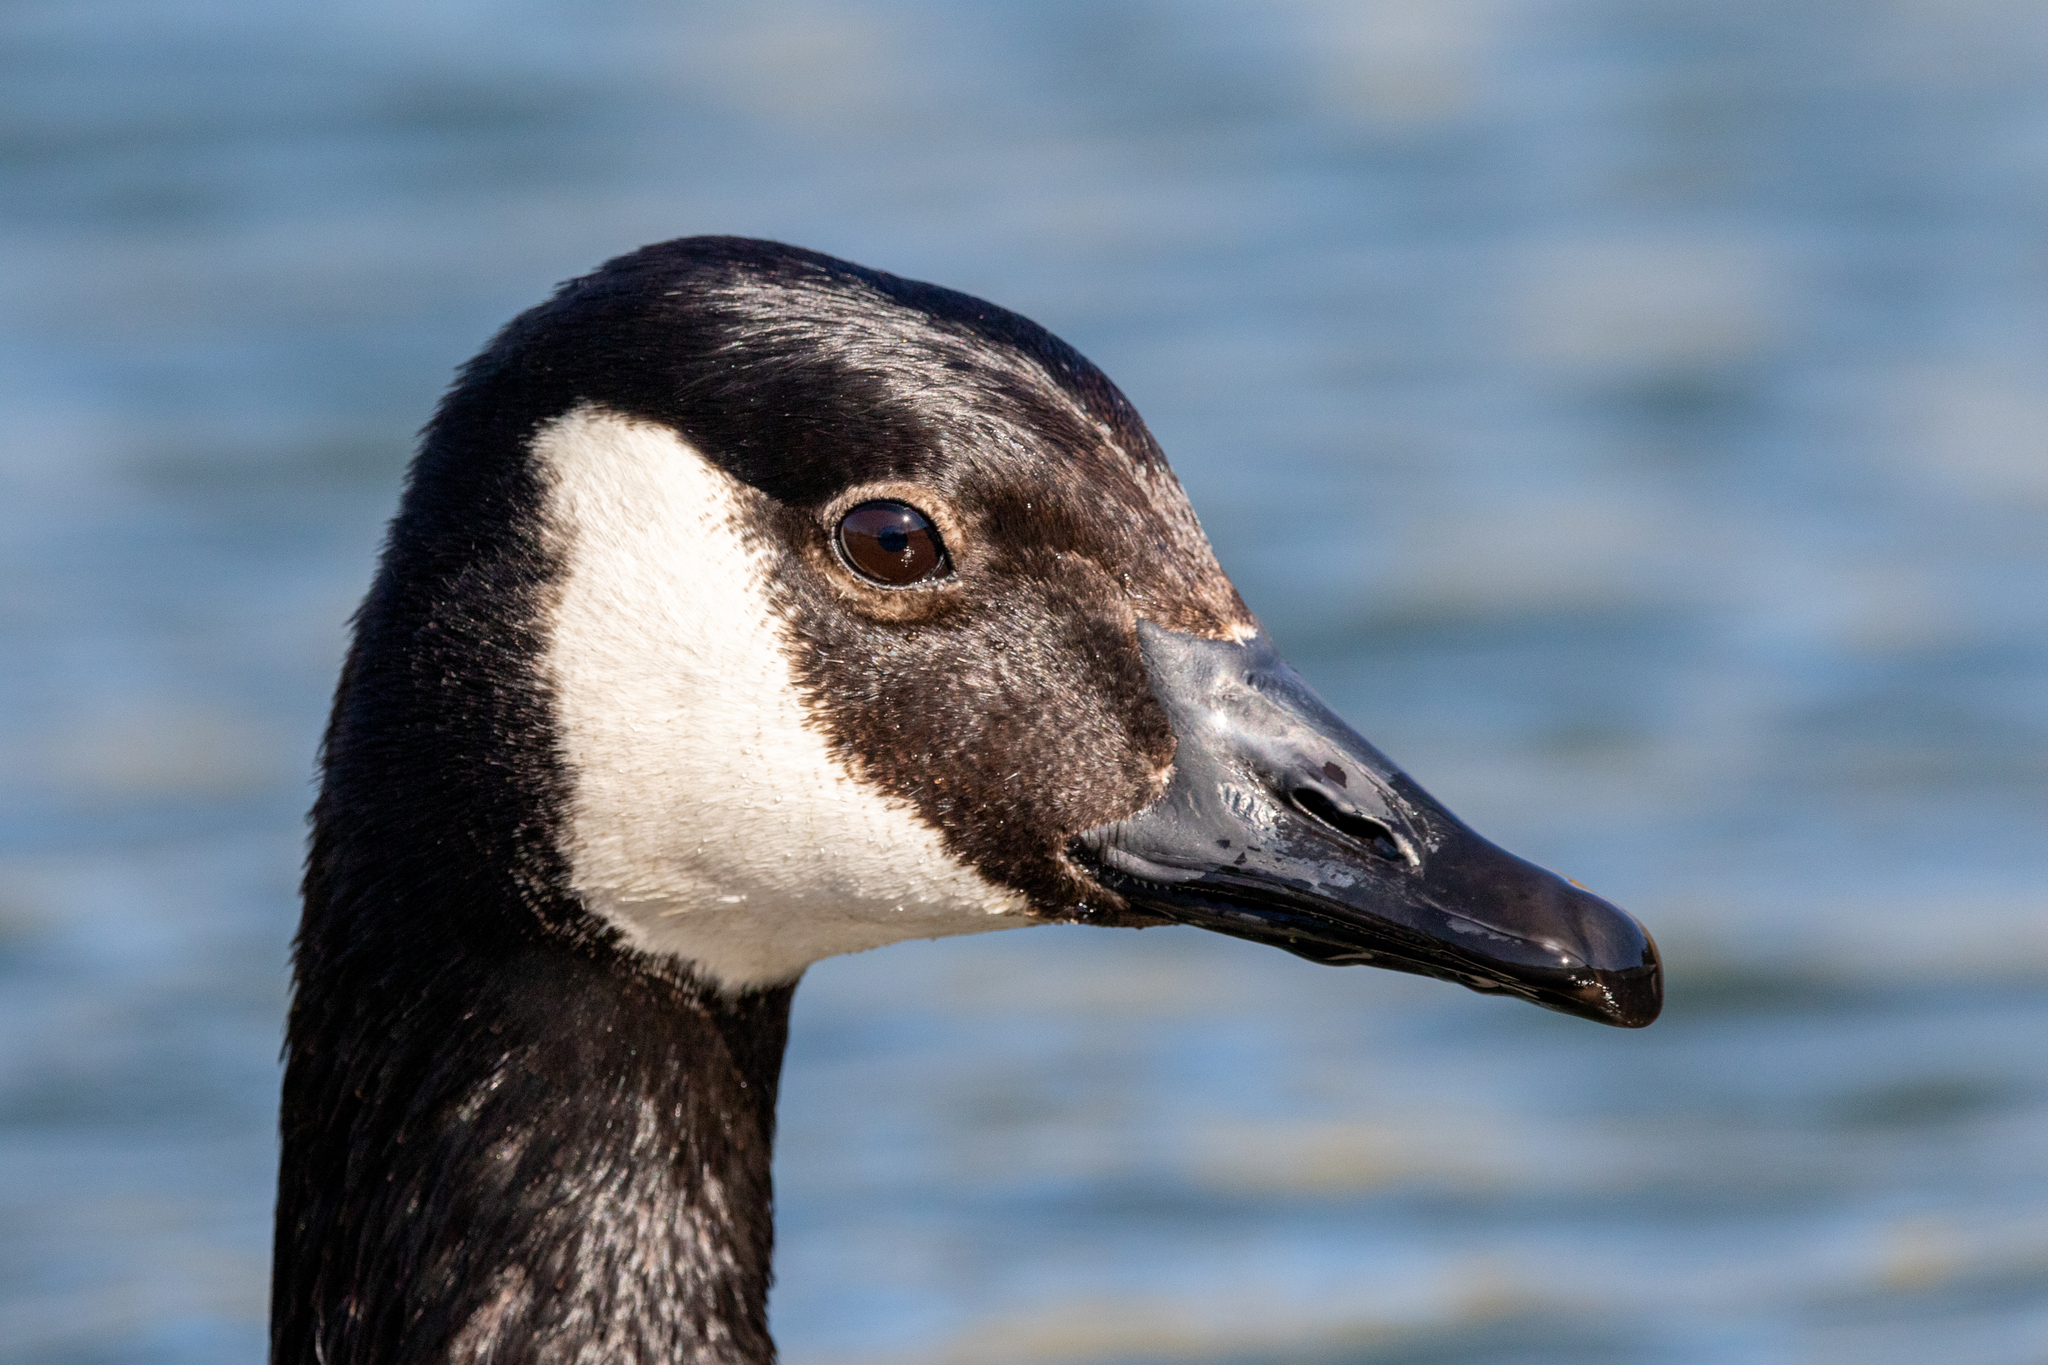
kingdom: Animalia
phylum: Chordata
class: Aves
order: Anseriformes
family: Anatidae
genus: Branta
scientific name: Branta canadensis
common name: Canada goose
